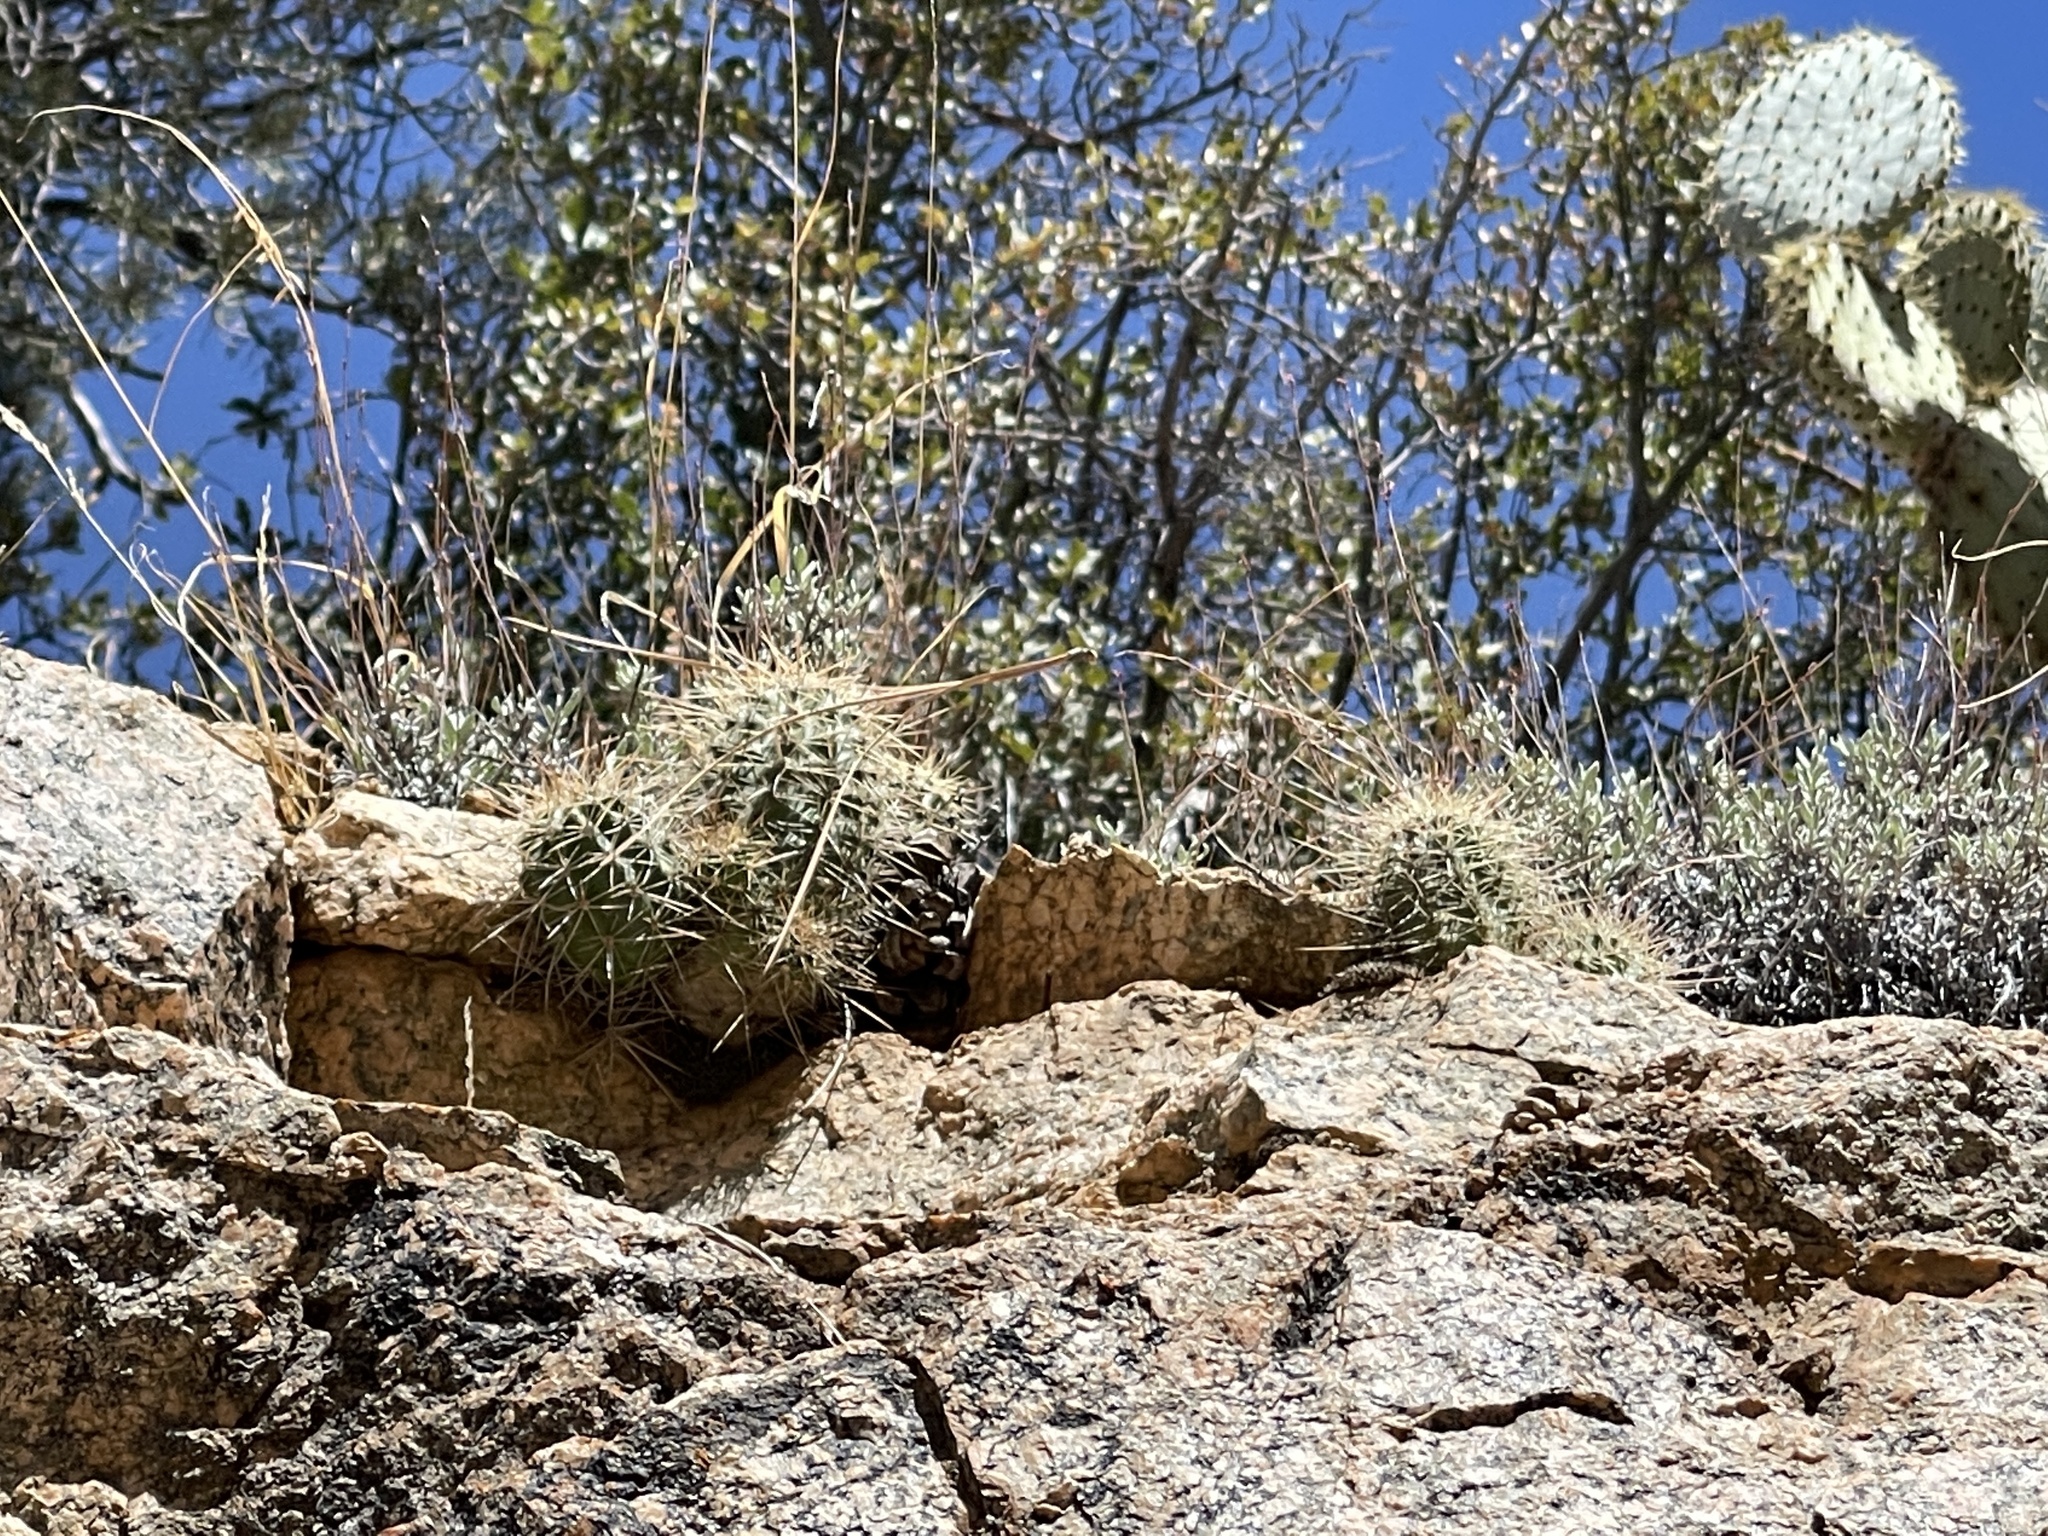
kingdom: Plantae
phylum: Tracheophyta
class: Magnoliopsida
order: Caryophyllales
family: Cactaceae
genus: Echinocereus
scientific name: Echinocereus bakeri
